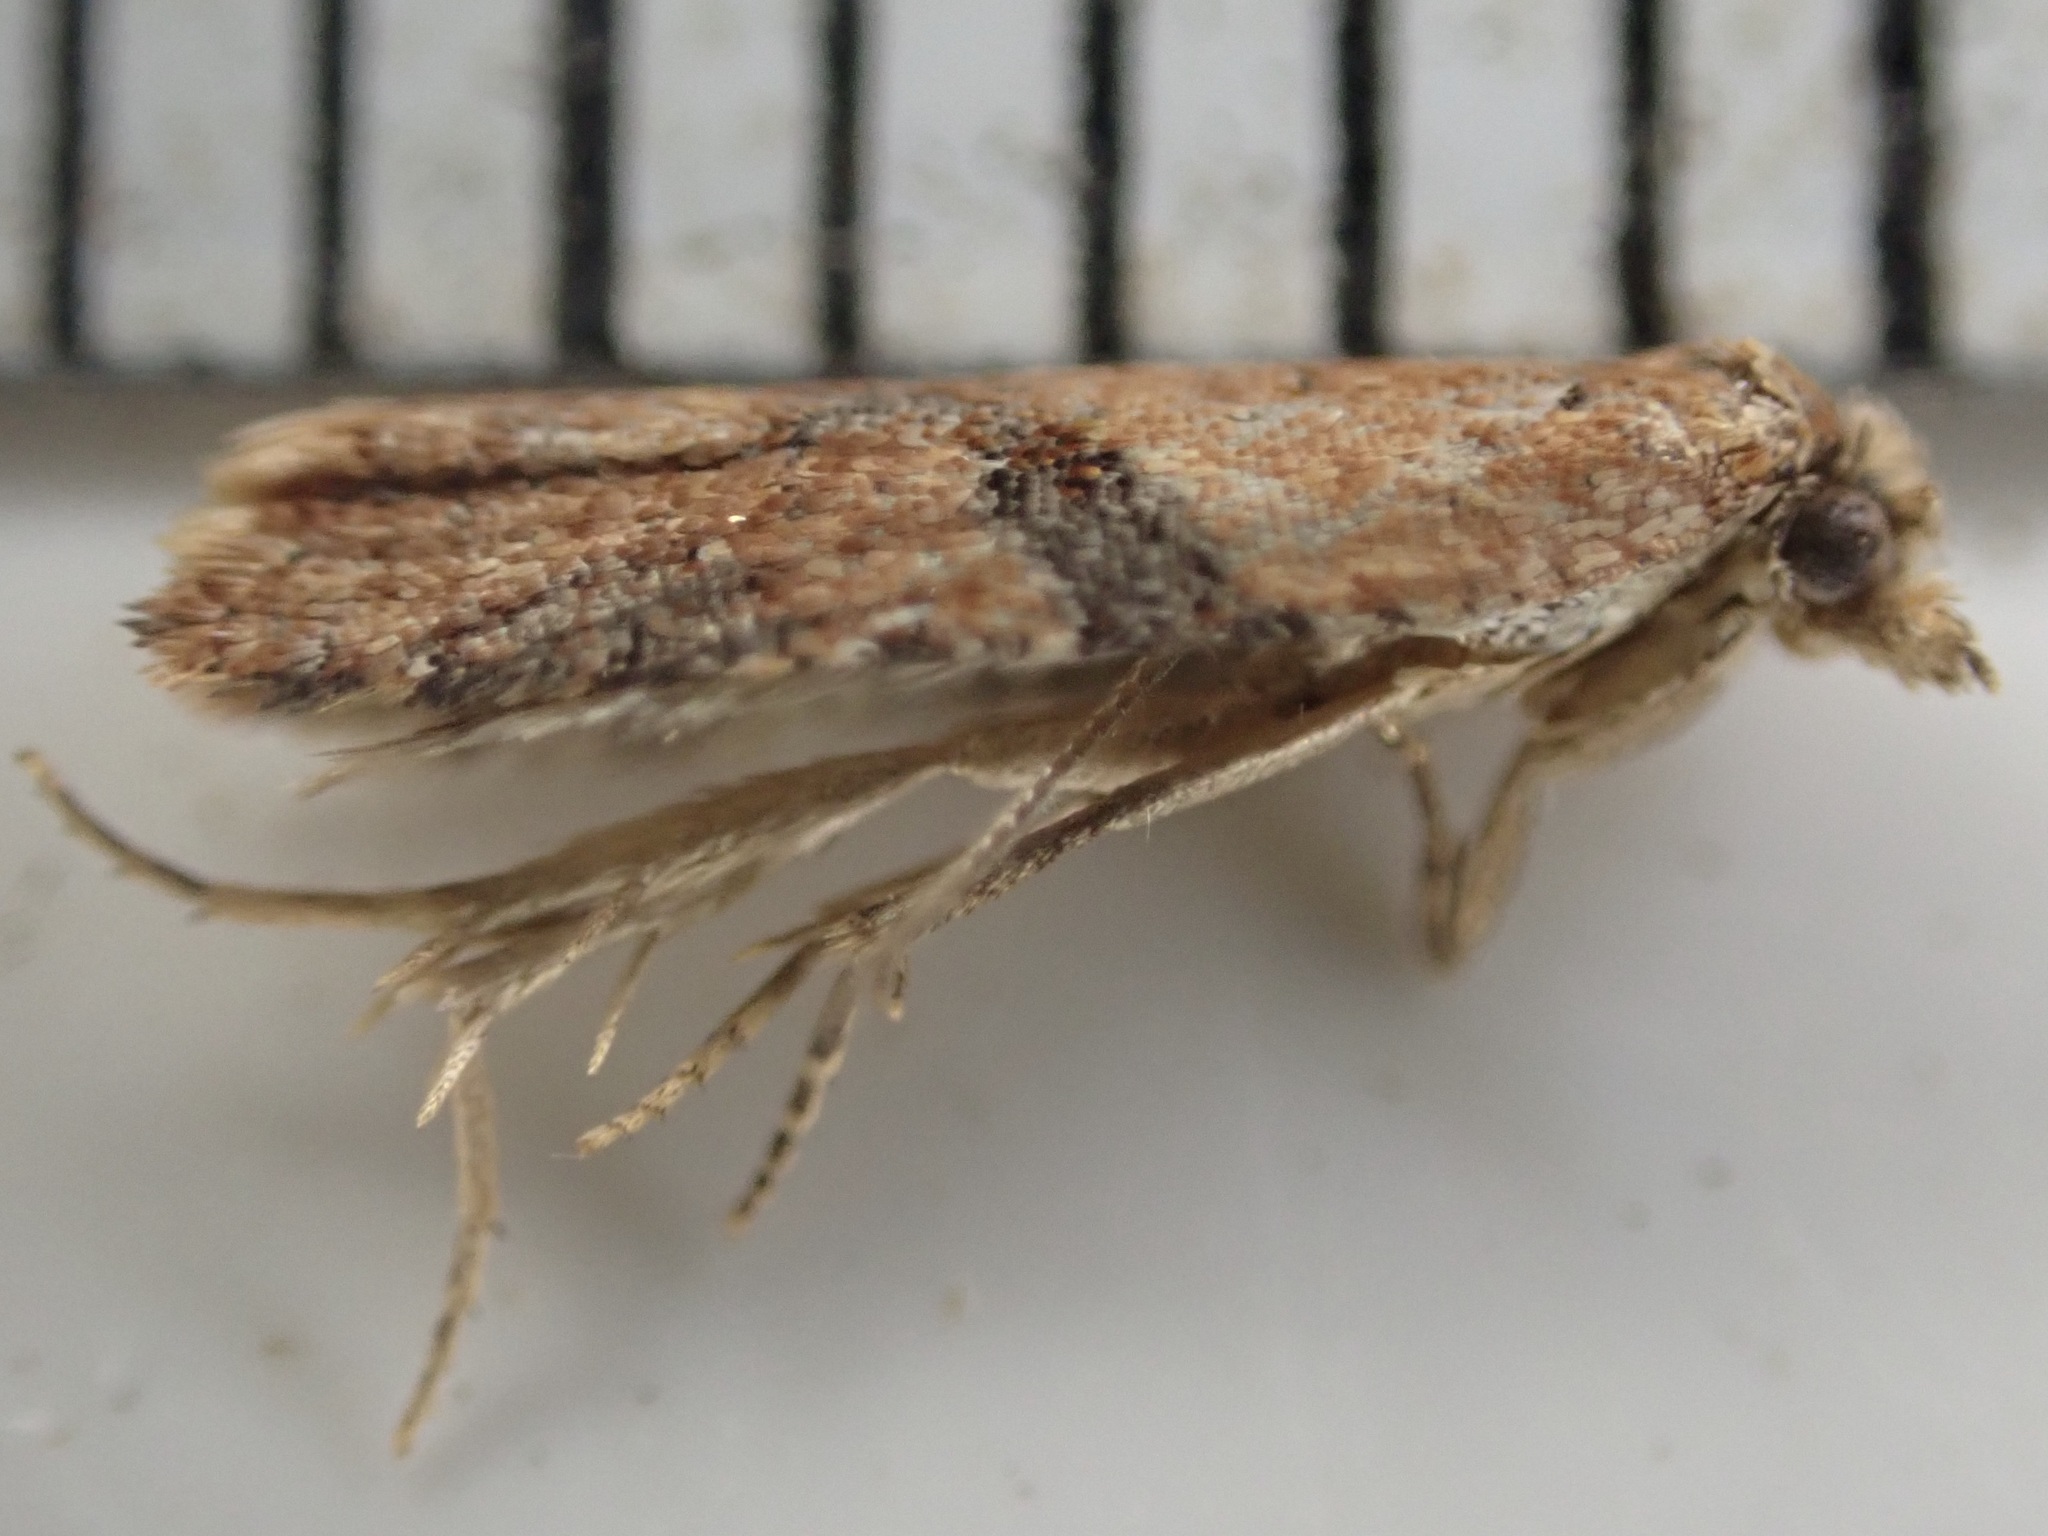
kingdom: Animalia
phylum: Arthropoda
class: Insecta
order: Lepidoptera
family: Tortricidae
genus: Capua
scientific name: Capua semiferana
